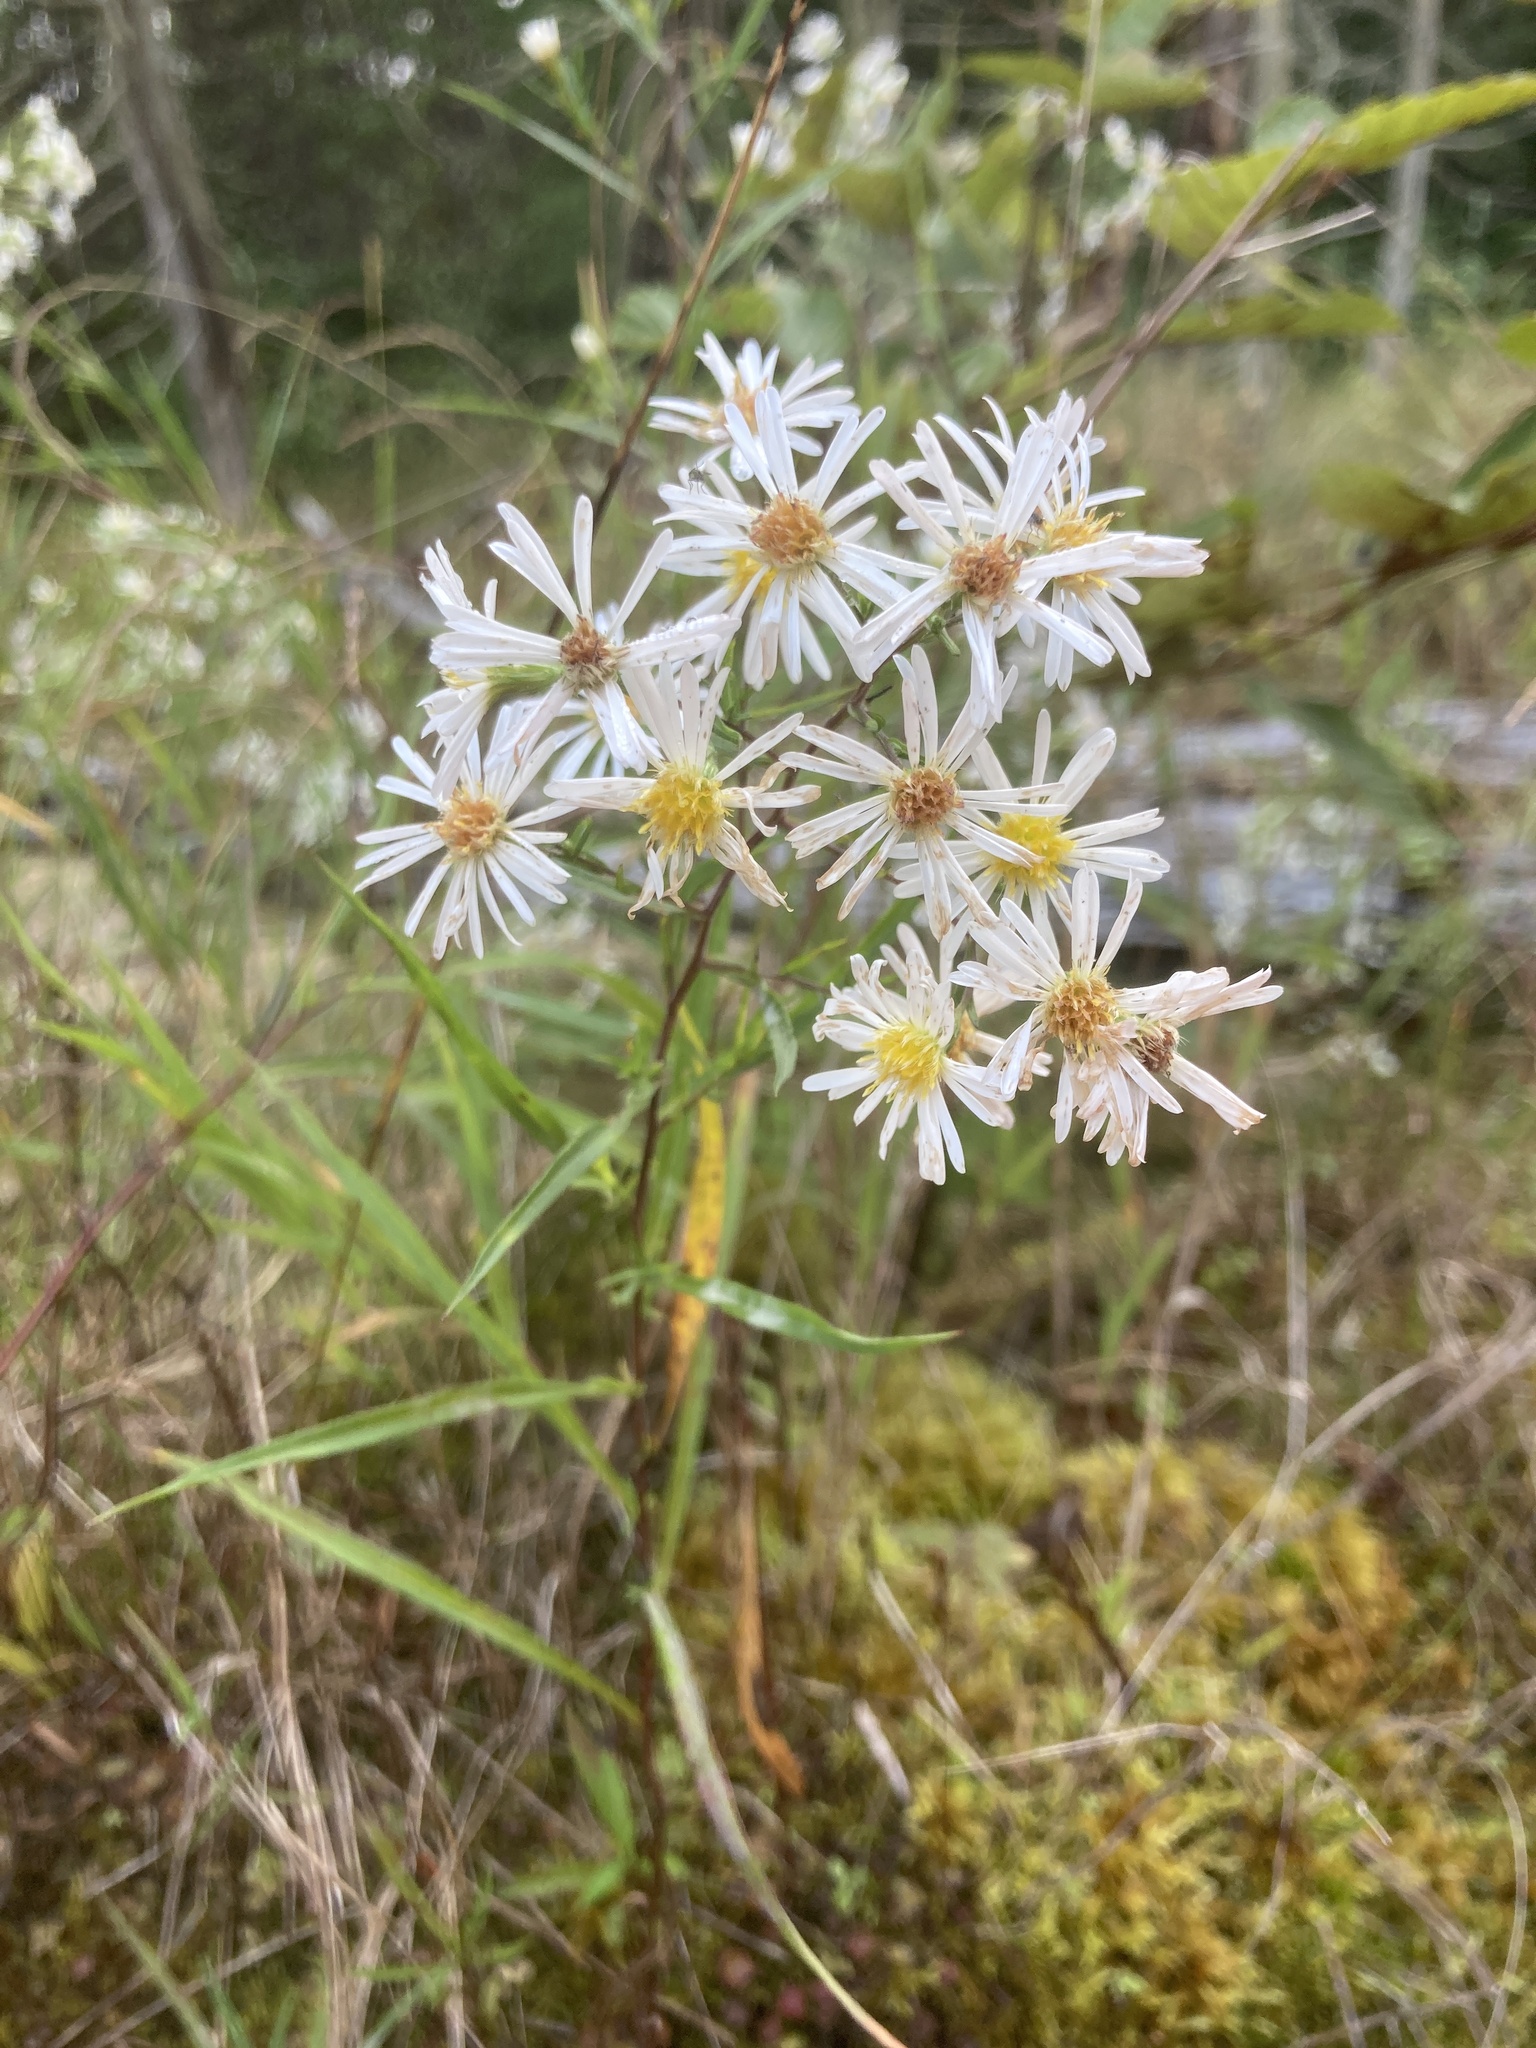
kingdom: Plantae
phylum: Tracheophyta
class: Magnoliopsida
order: Asterales
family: Asteraceae
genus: Symphyotrichum
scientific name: Symphyotrichum lanceolatum
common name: Panicled aster
